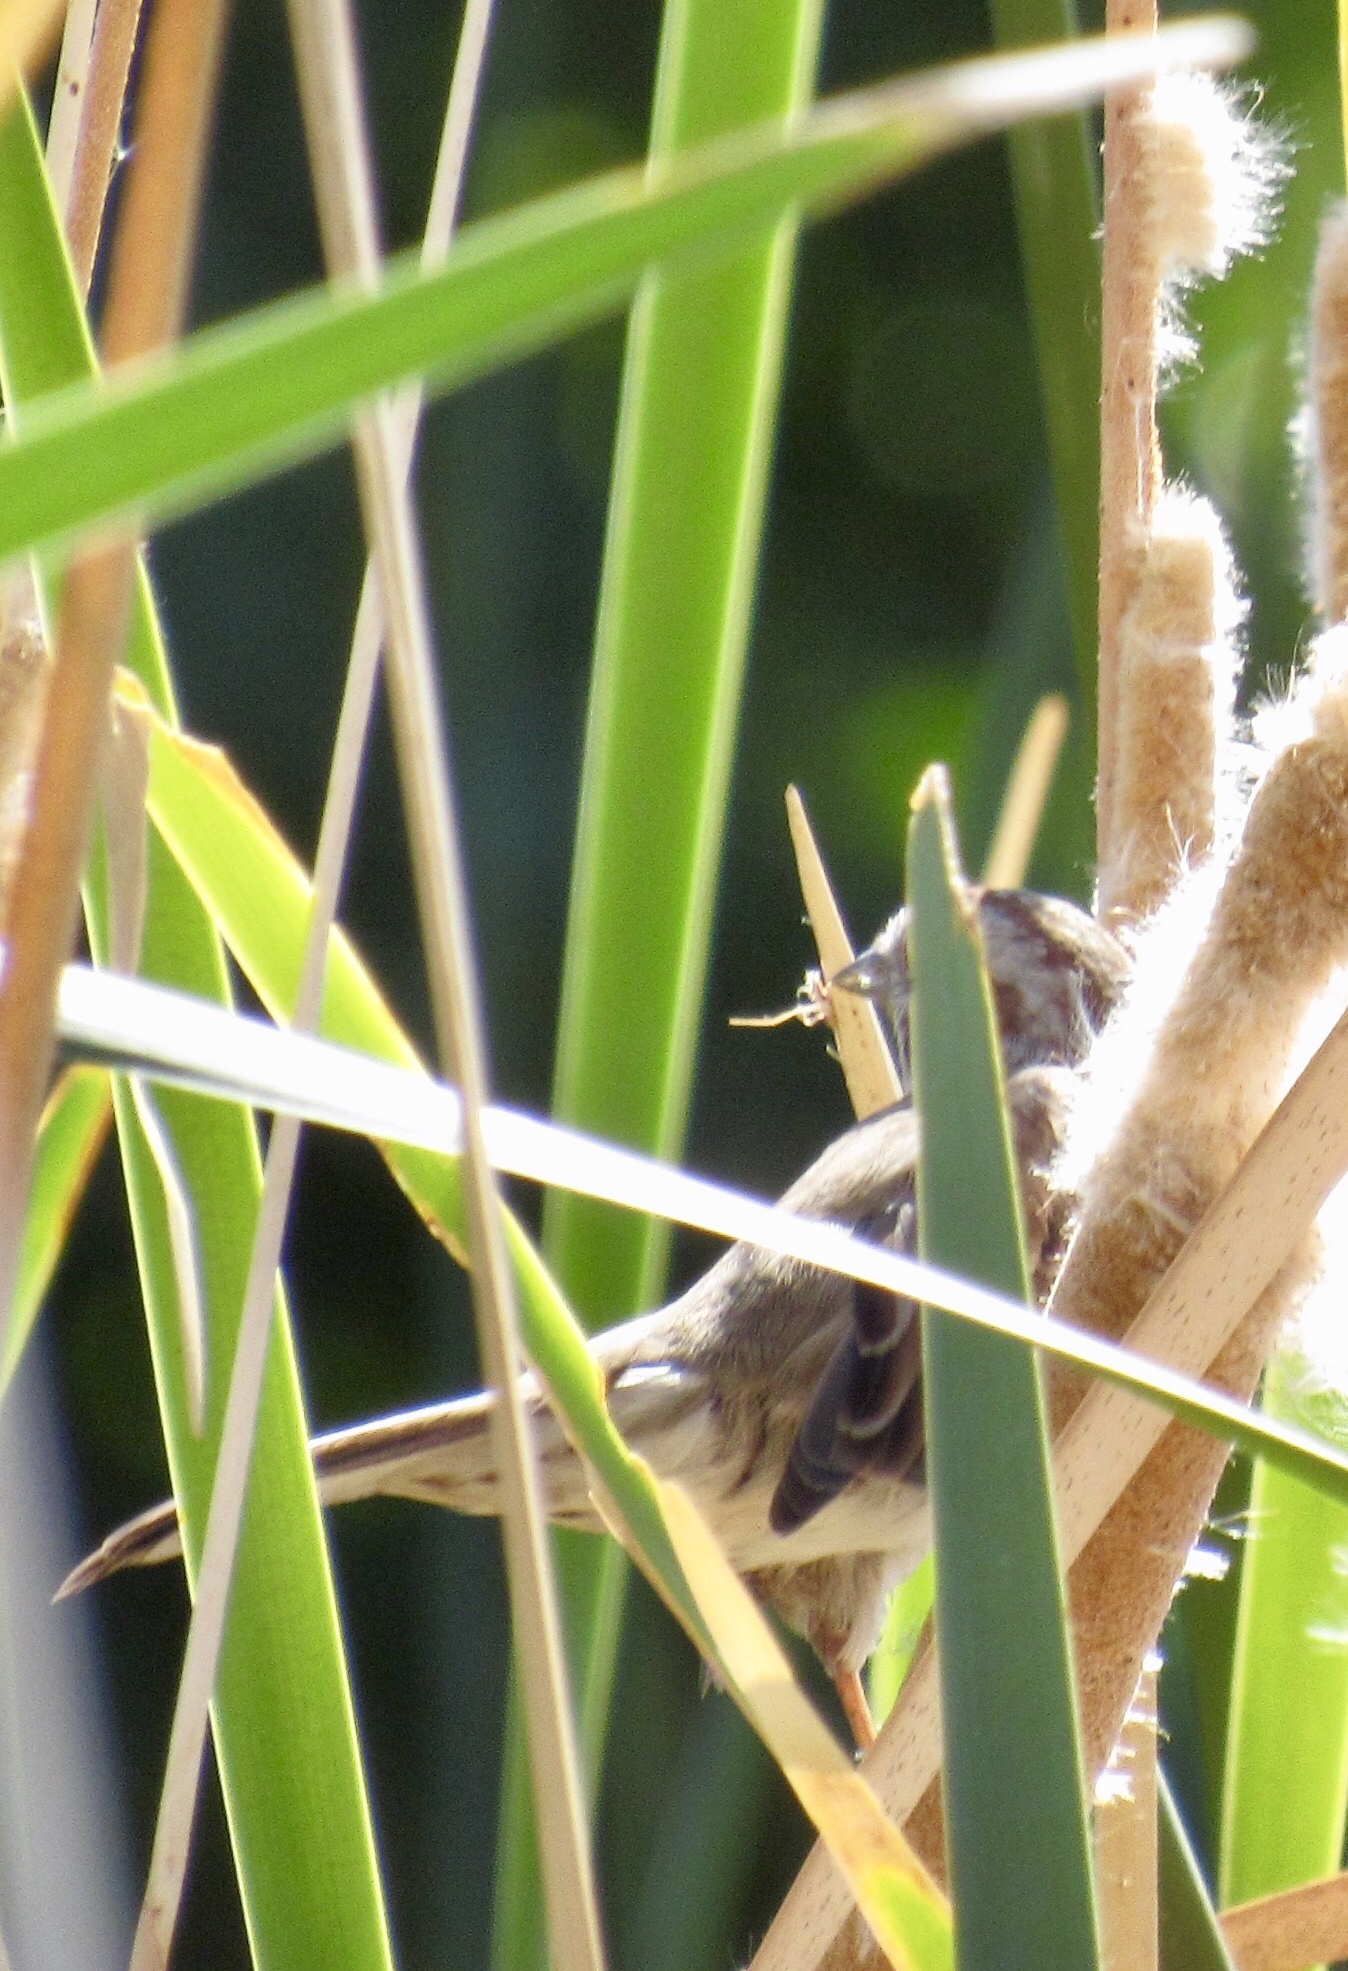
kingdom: Animalia
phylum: Chordata
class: Aves
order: Passeriformes
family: Passerellidae
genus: Melospiza
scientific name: Melospiza melodia
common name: Song sparrow
